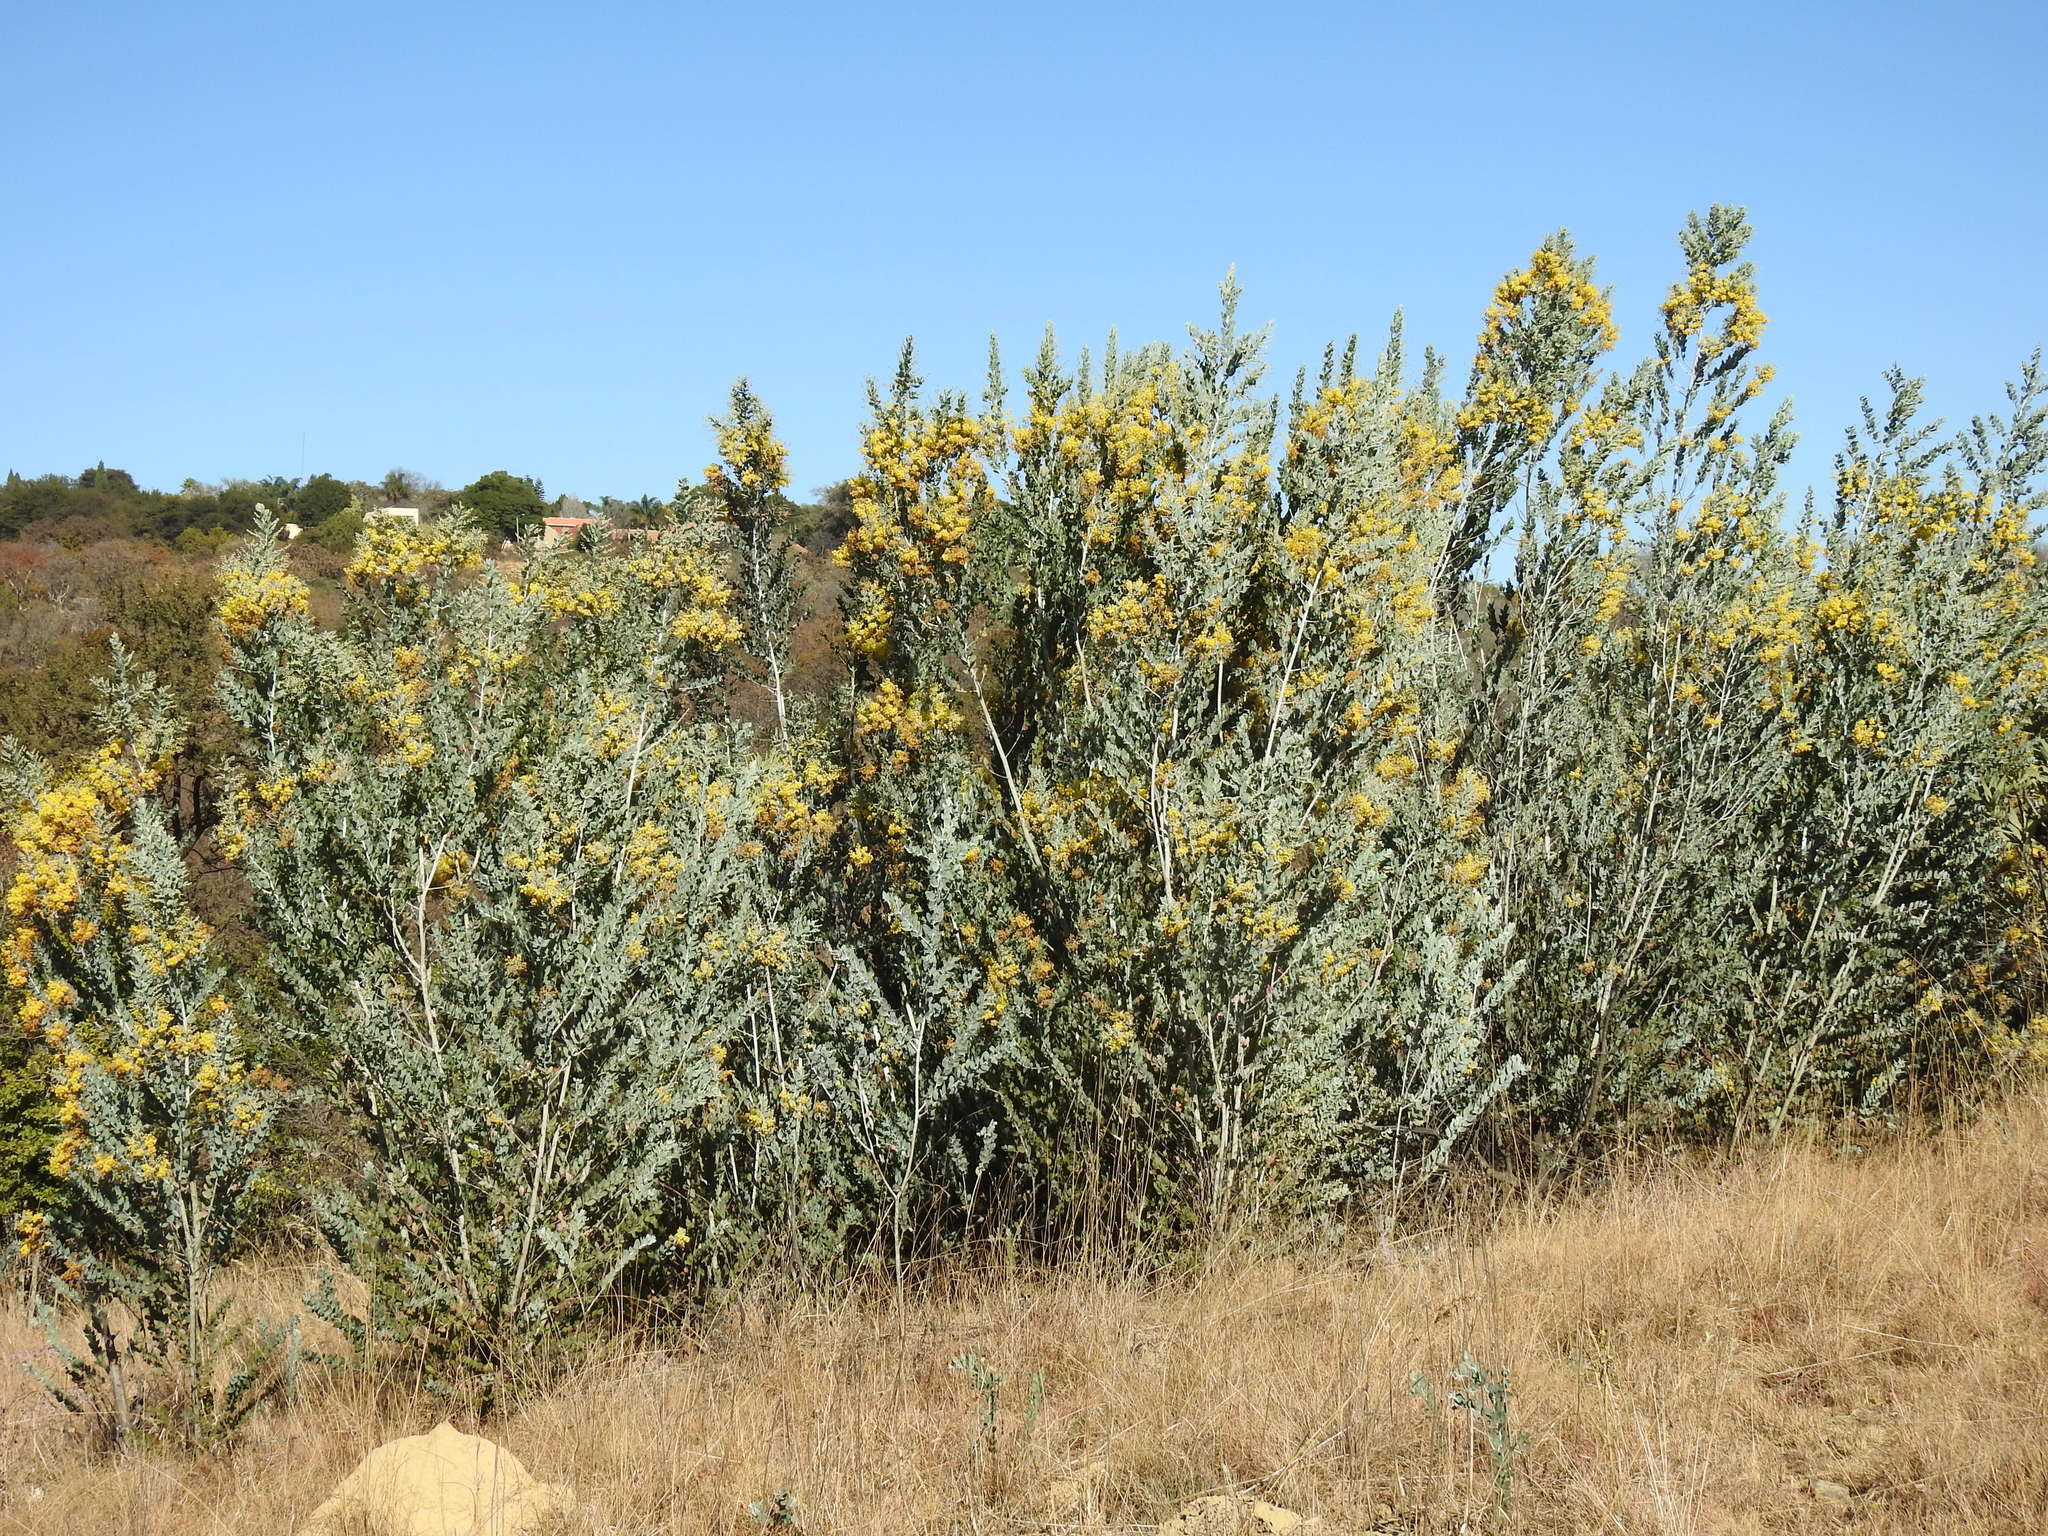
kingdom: Plantae
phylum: Tracheophyta
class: Magnoliopsida
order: Fabales
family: Fabaceae
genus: Acacia
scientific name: Acacia podalyriifolia
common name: Pearl wattle
